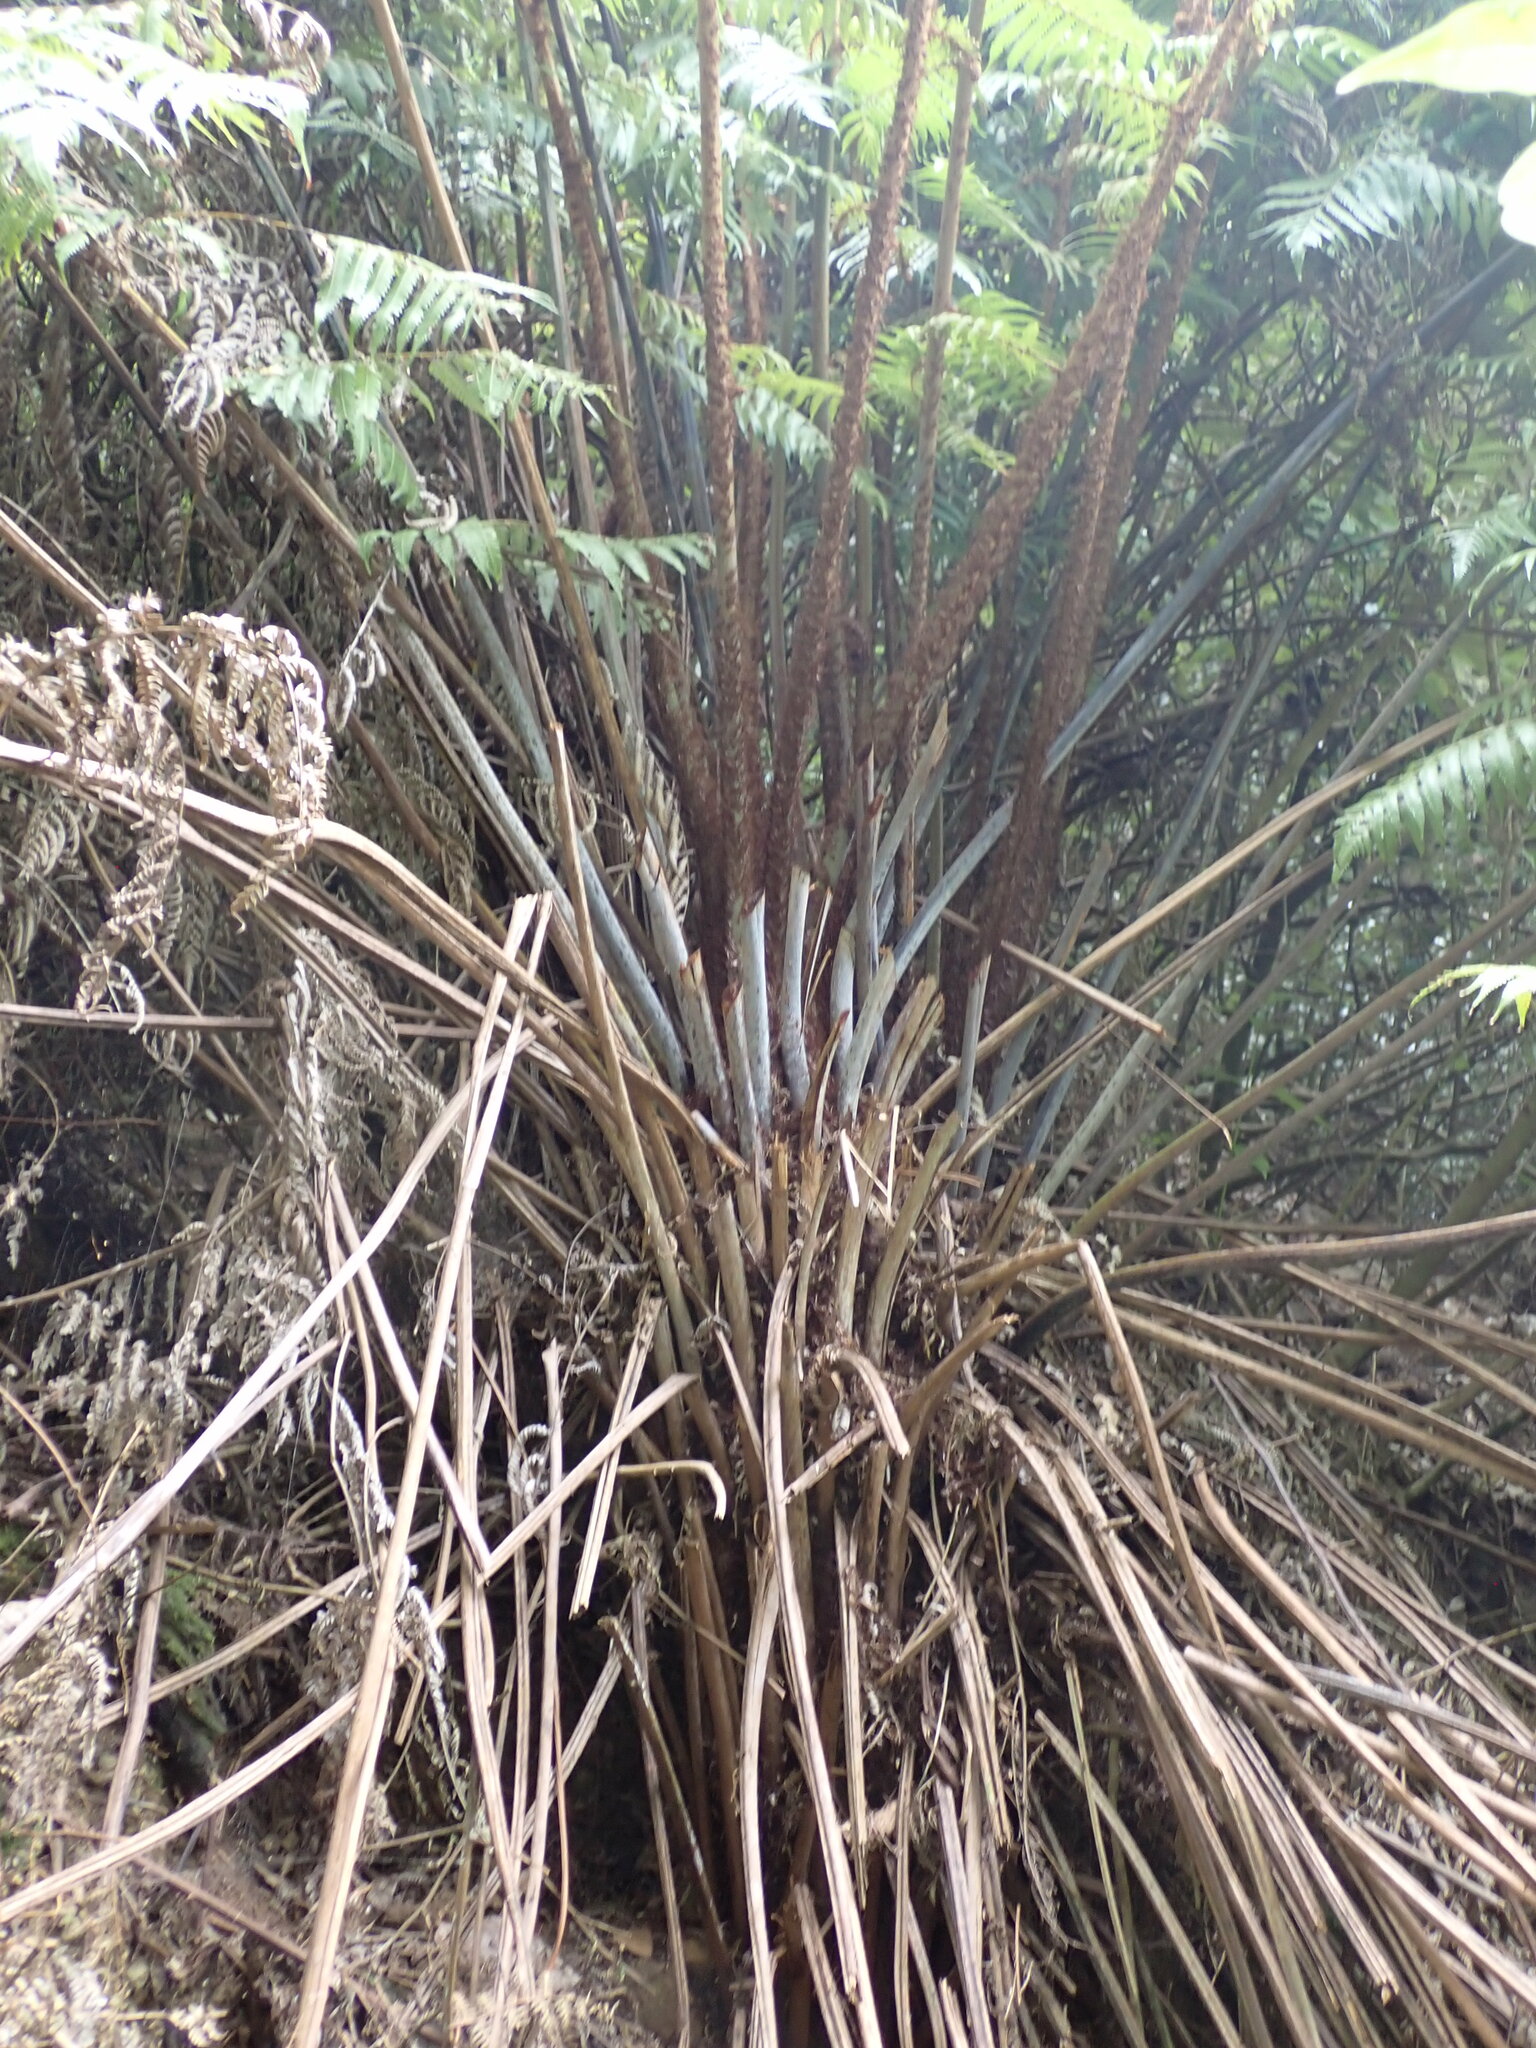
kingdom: Plantae
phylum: Tracheophyta
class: Polypodiopsida
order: Cyatheales
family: Cyatheaceae
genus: Alsophila
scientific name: Alsophila dealbata
